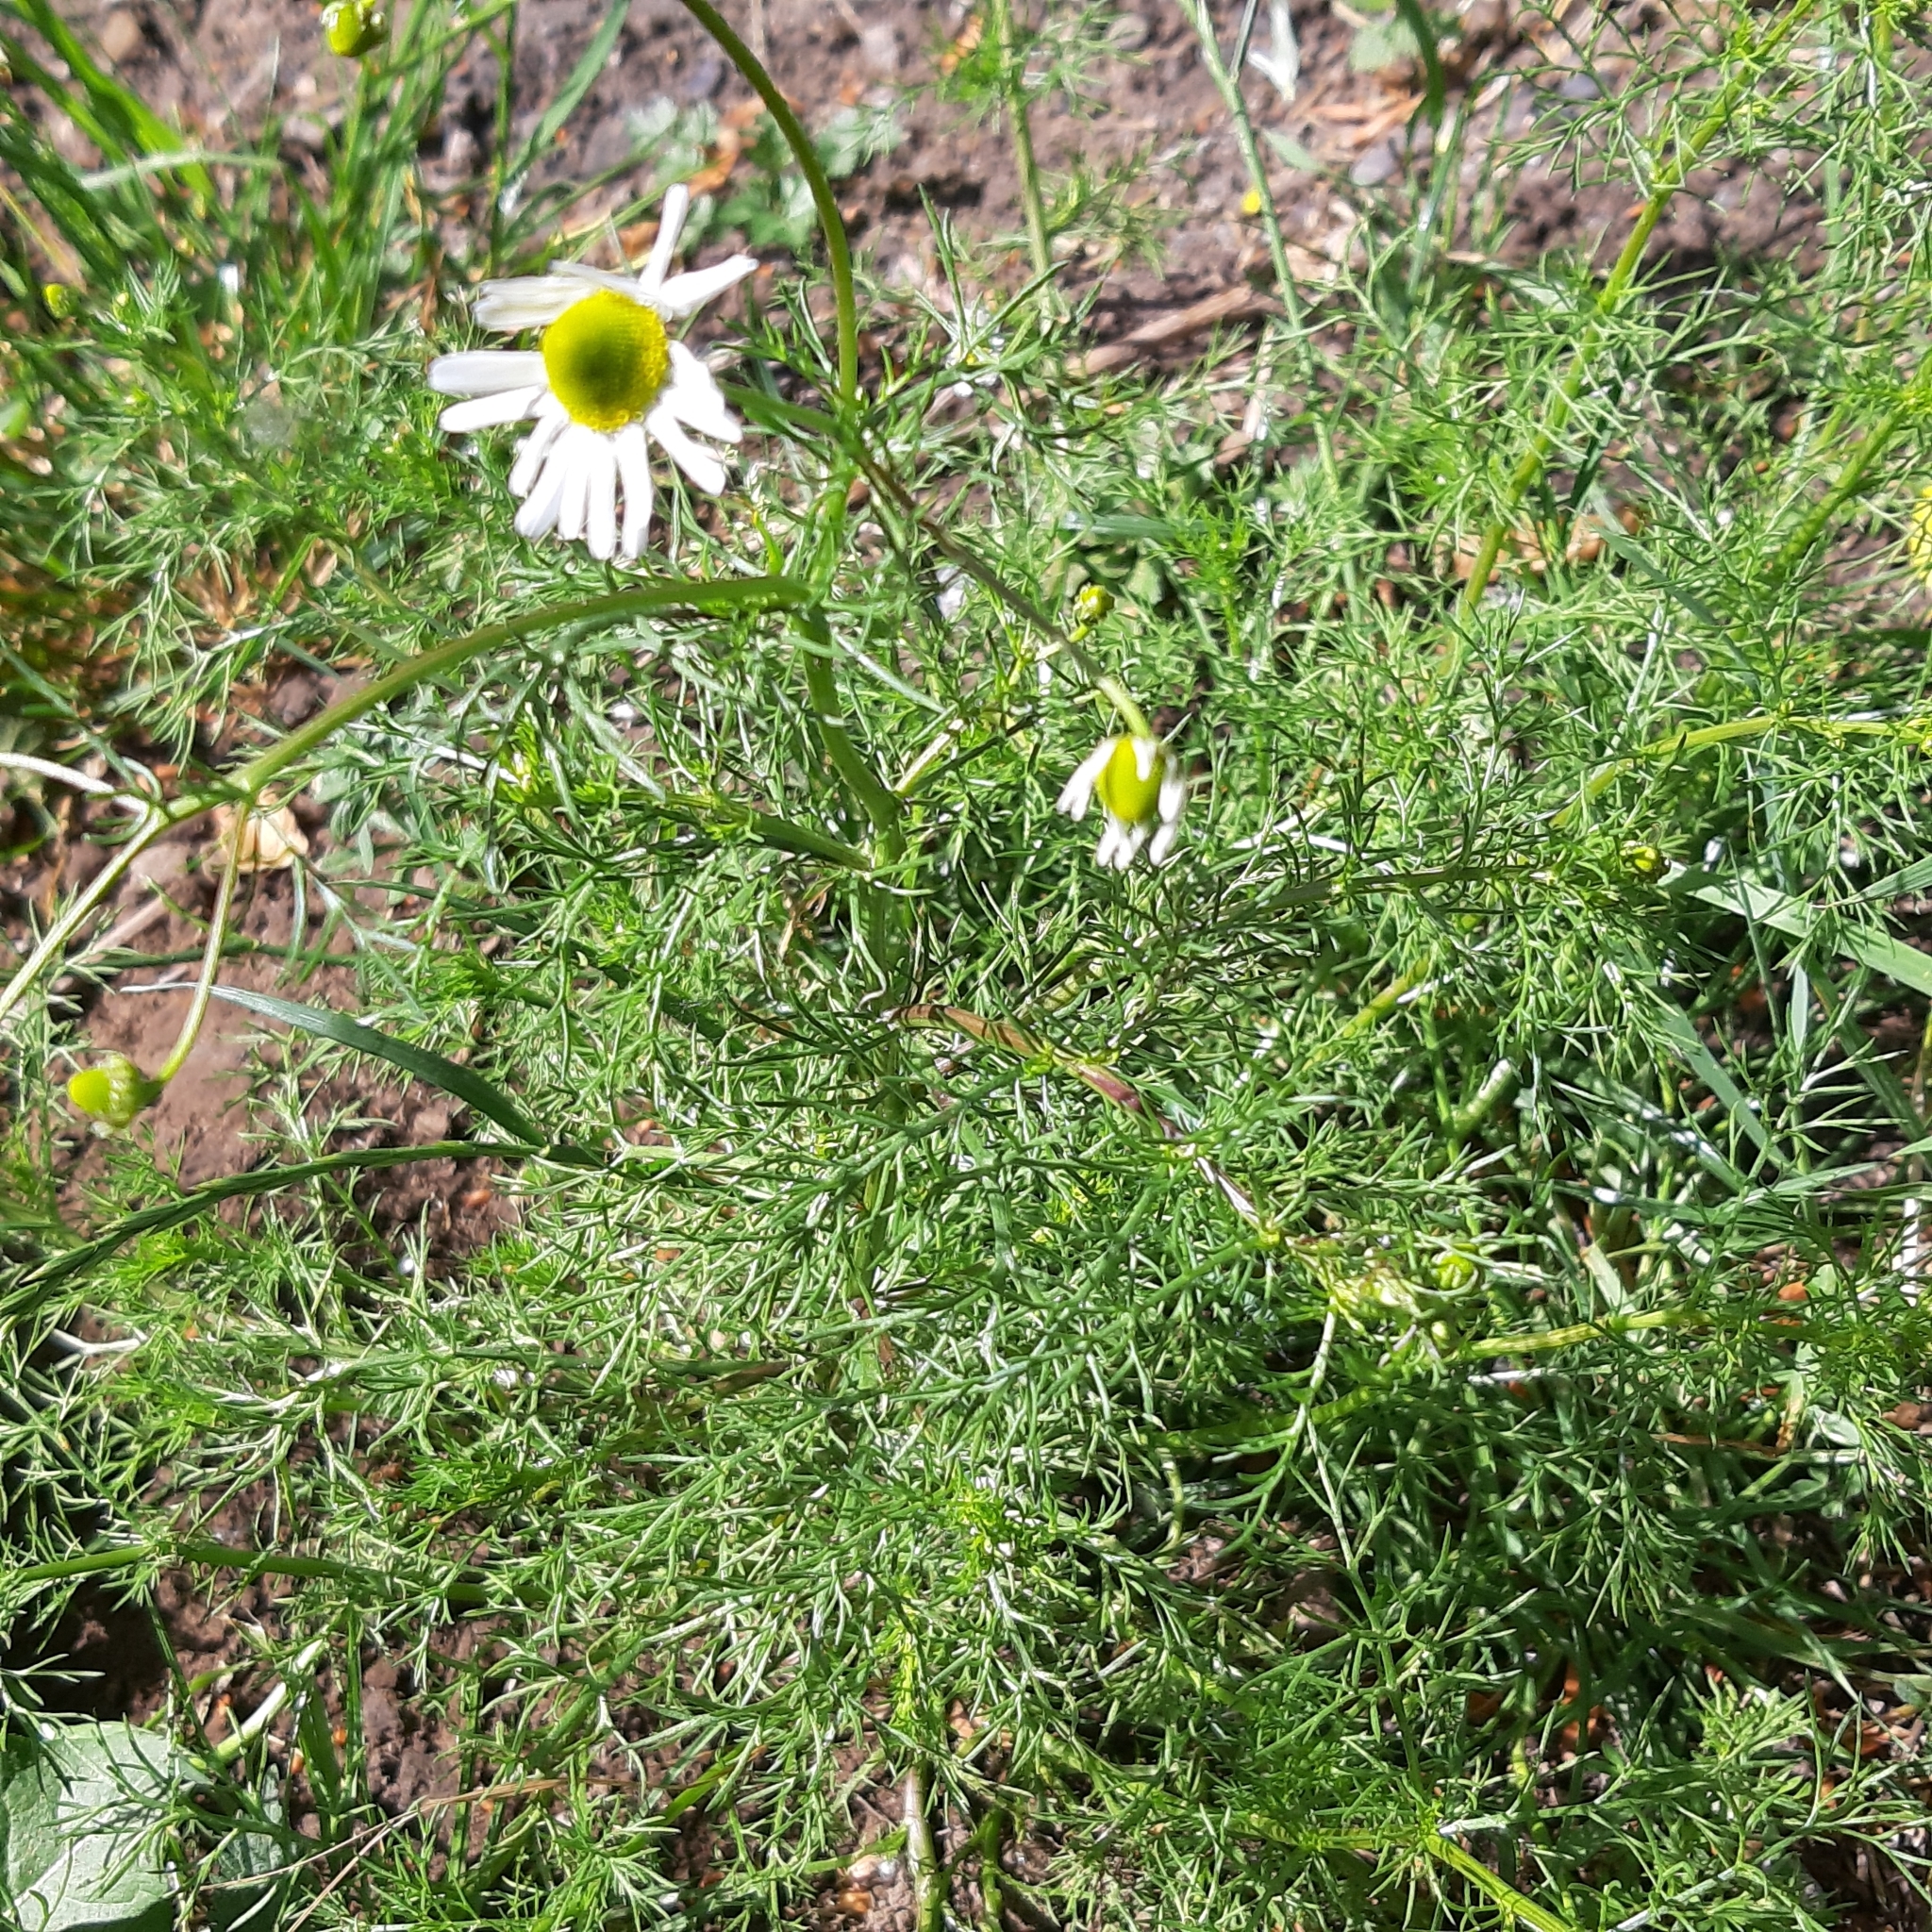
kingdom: Plantae
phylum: Tracheophyta
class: Magnoliopsida
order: Asterales
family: Asteraceae
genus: Matricaria
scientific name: Matricaria chamomilla
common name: Scented mayweed
